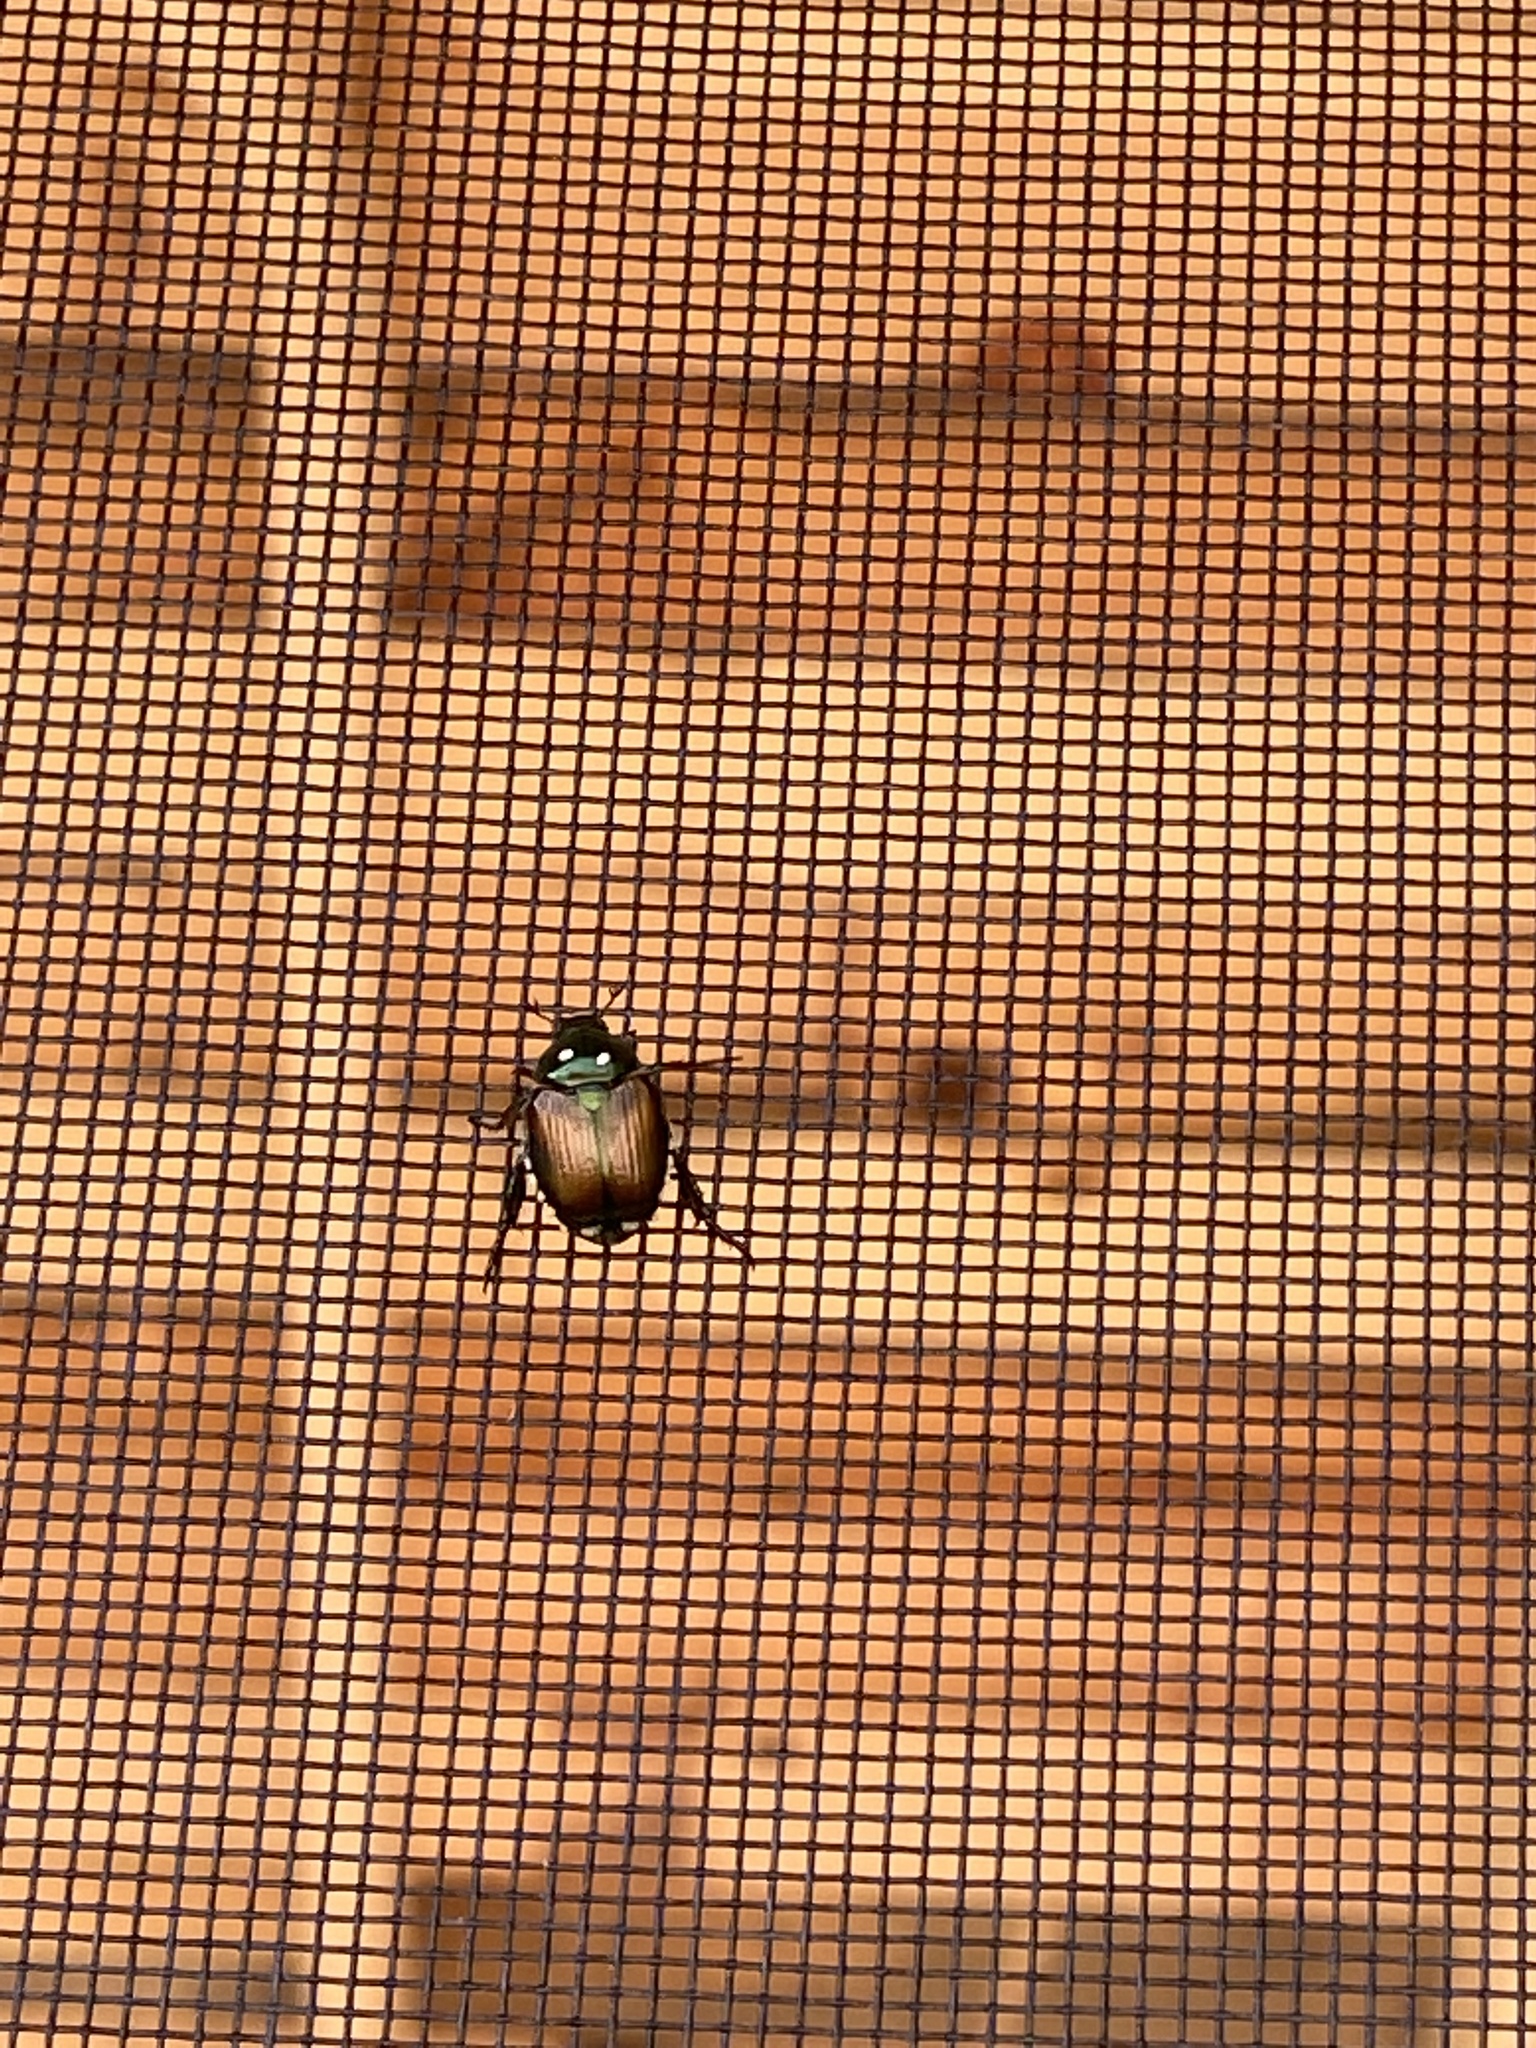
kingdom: Animalia
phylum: Arthropoda
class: Insecta
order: Coleoptera
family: Scarabaeidae
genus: Popillia
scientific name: Popillia japonica
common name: Japanese beetle
